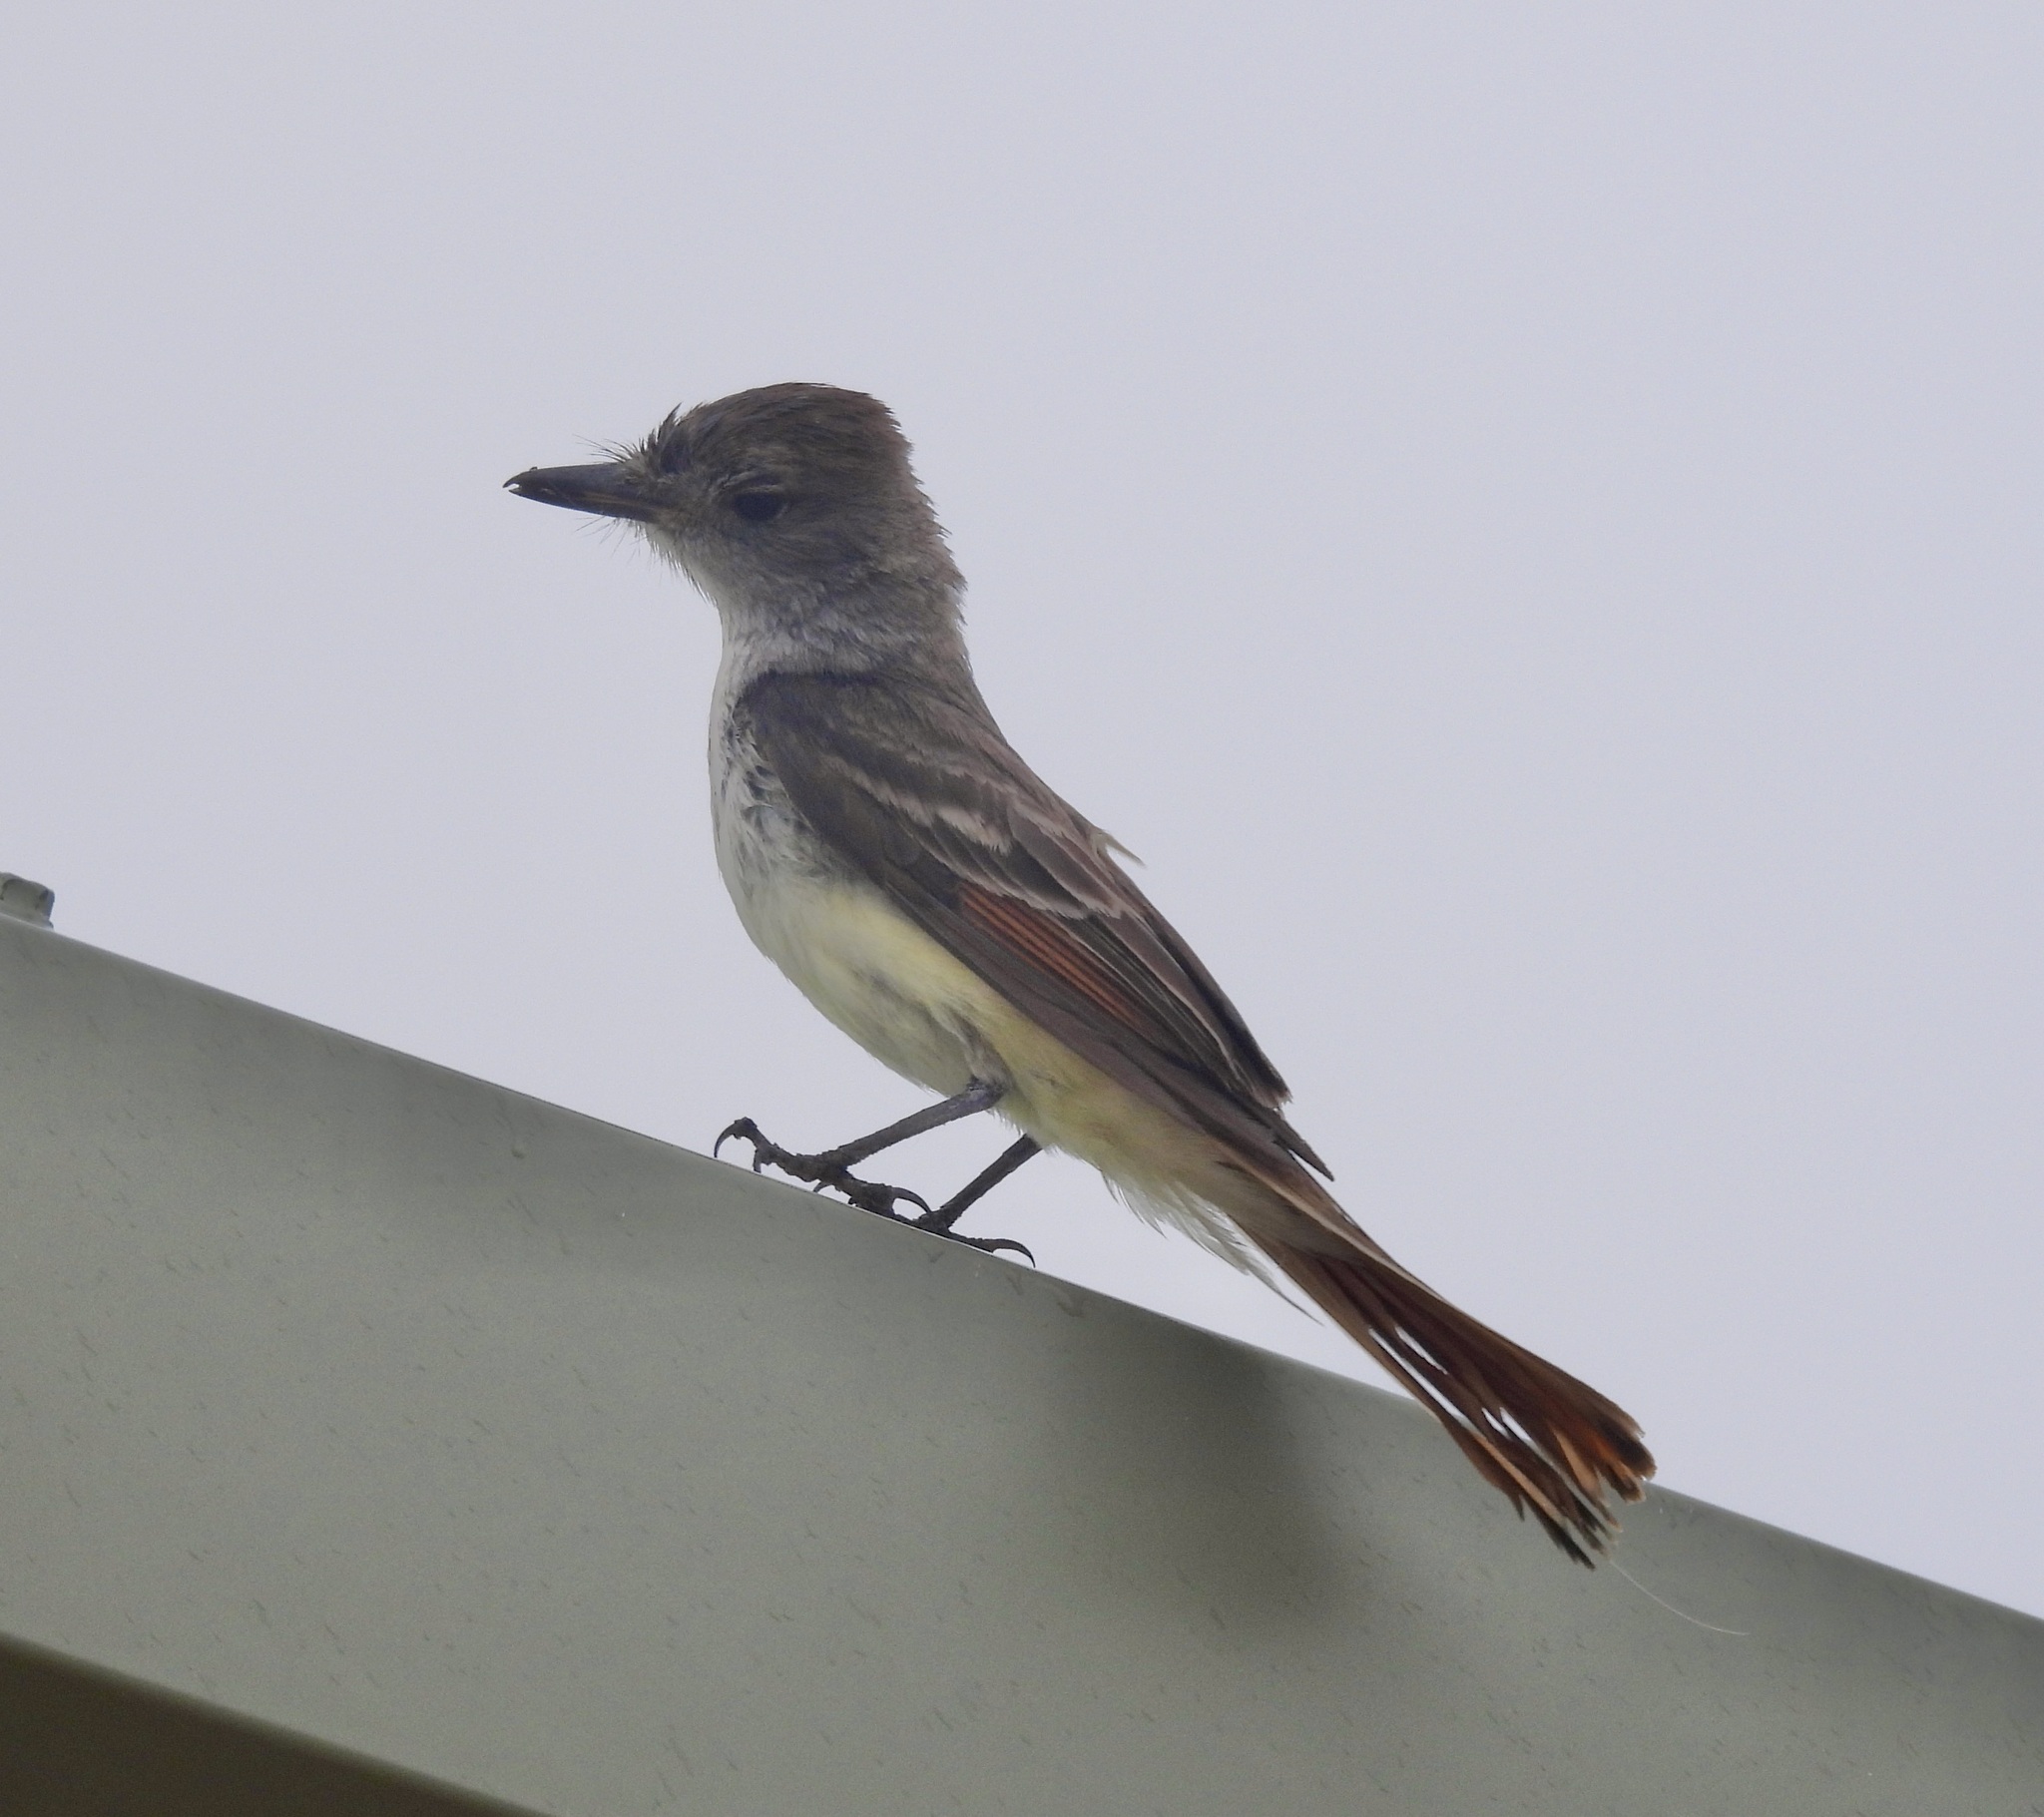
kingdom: Animalia
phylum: Chordata
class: Aves
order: Passeriformes
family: Tyrannidae
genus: Myiarchus
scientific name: Myiarchus cinerascens
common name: Ash-throated flycatcher
